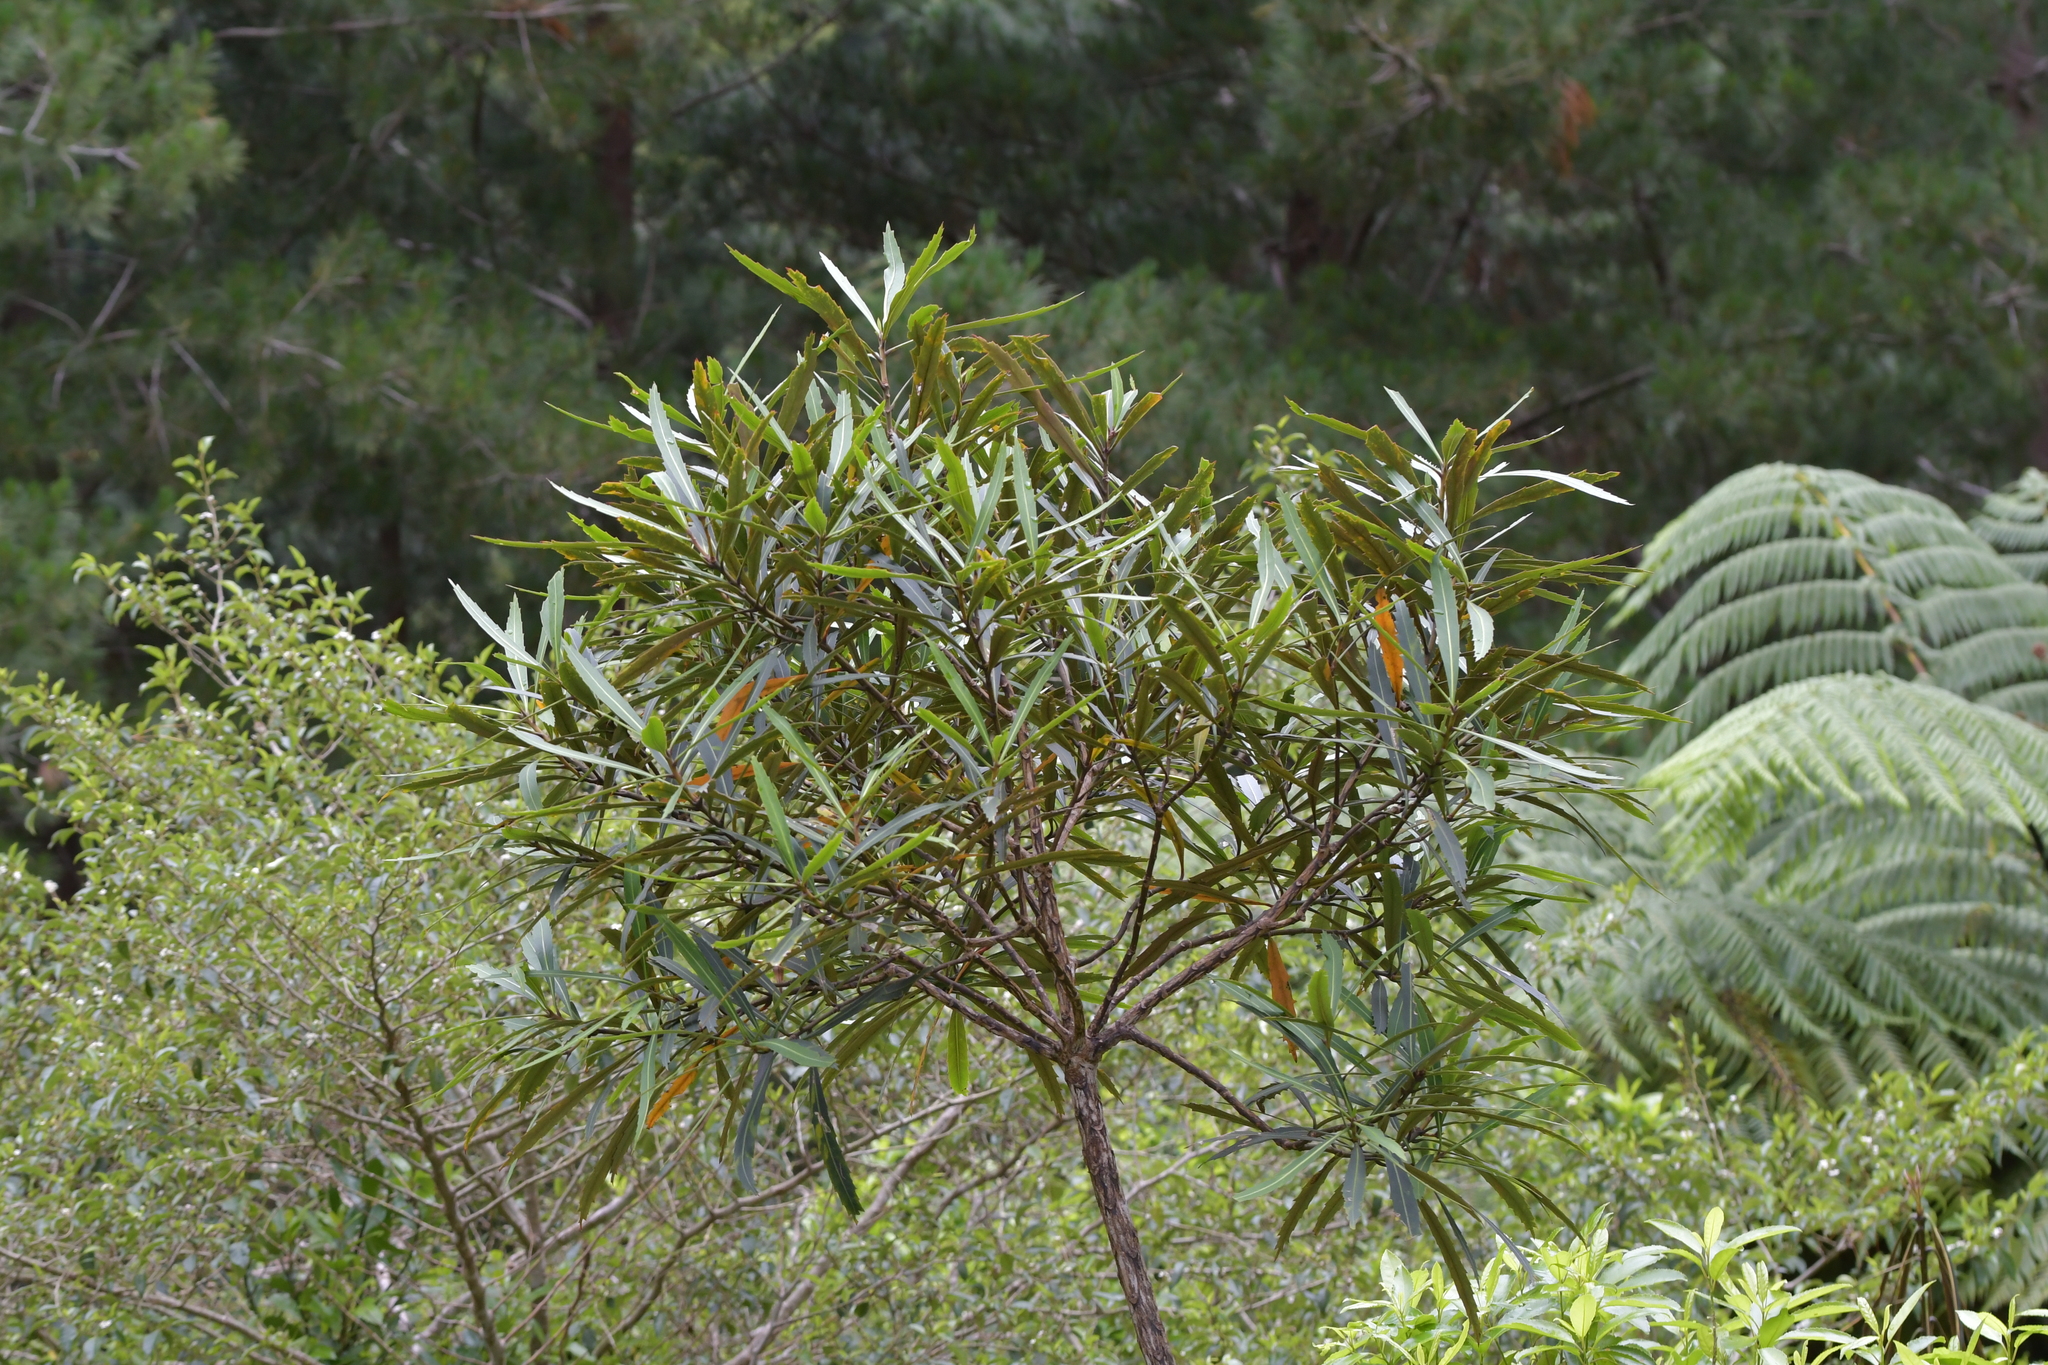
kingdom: Plantae
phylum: Tracheophyta
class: Magnoliopsida
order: Apiales
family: Araliaceae
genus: Pseudopanax
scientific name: Pseudopanax crassifolius
